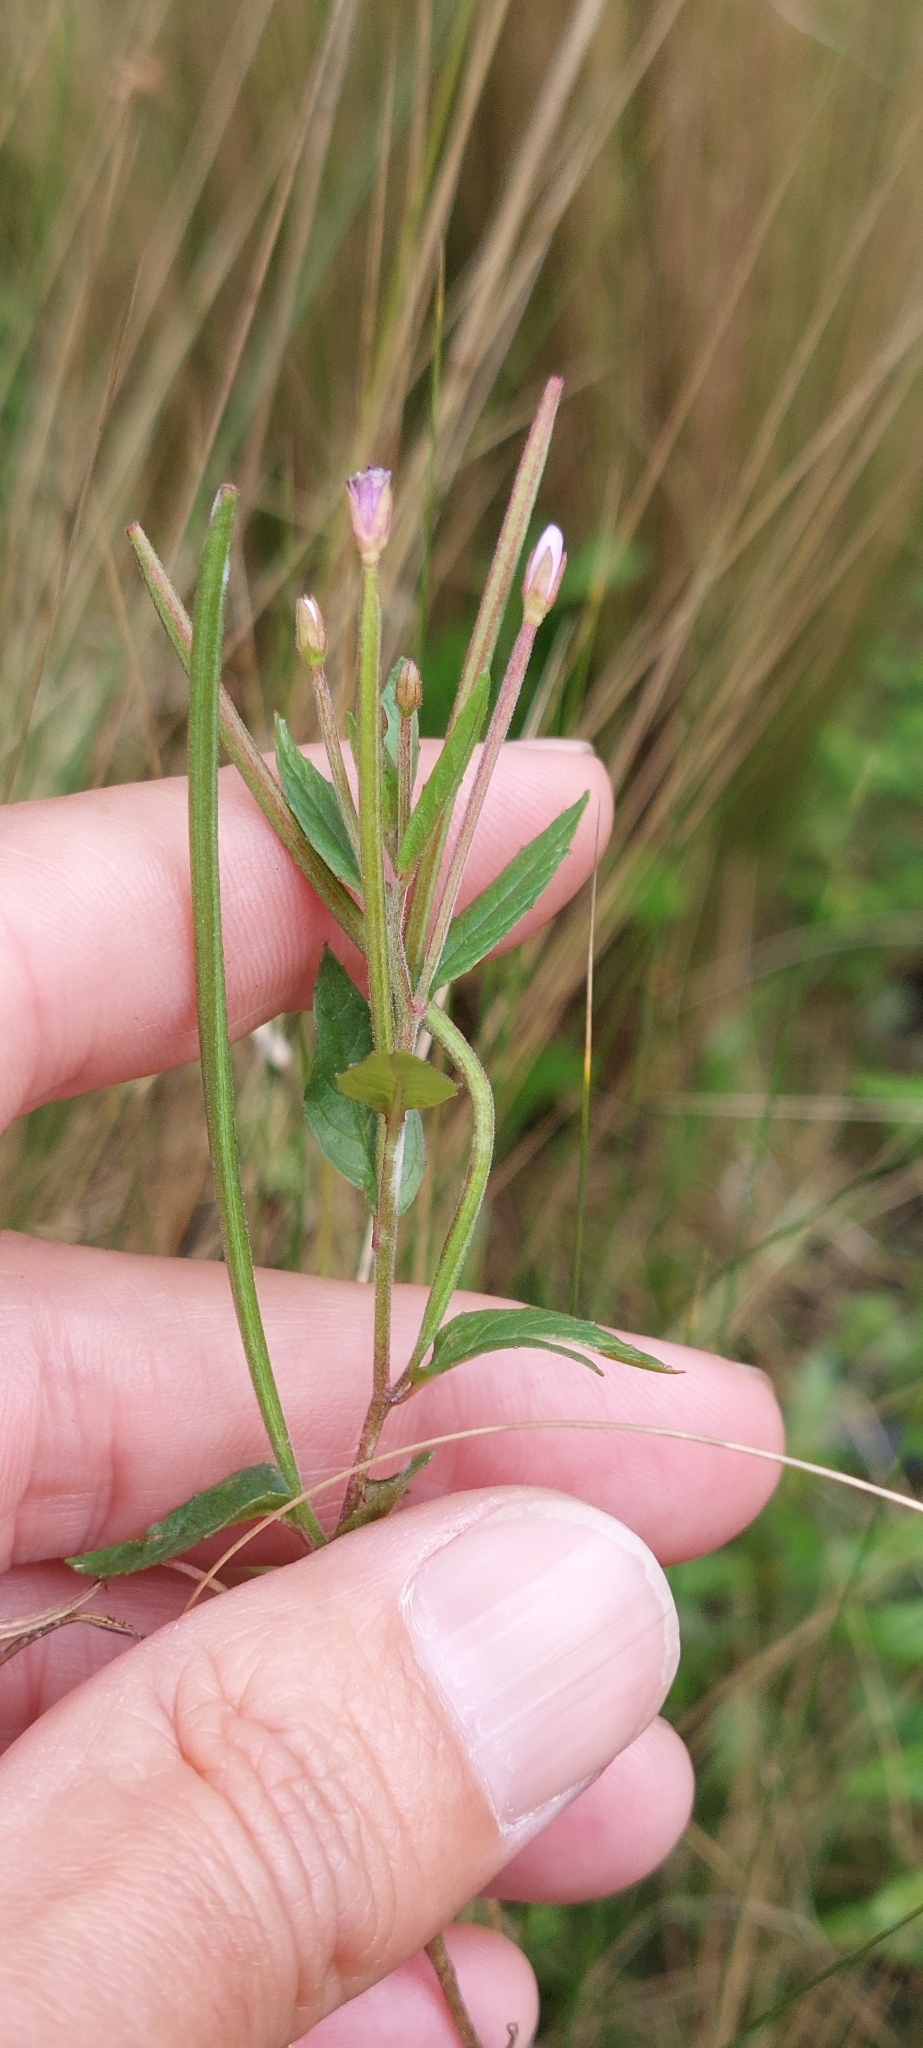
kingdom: Plantae
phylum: Tracheophyta
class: Magnoliopsida
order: Myrtales
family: Onagraceae
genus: Epilobium
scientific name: Epilobium denticulatum
